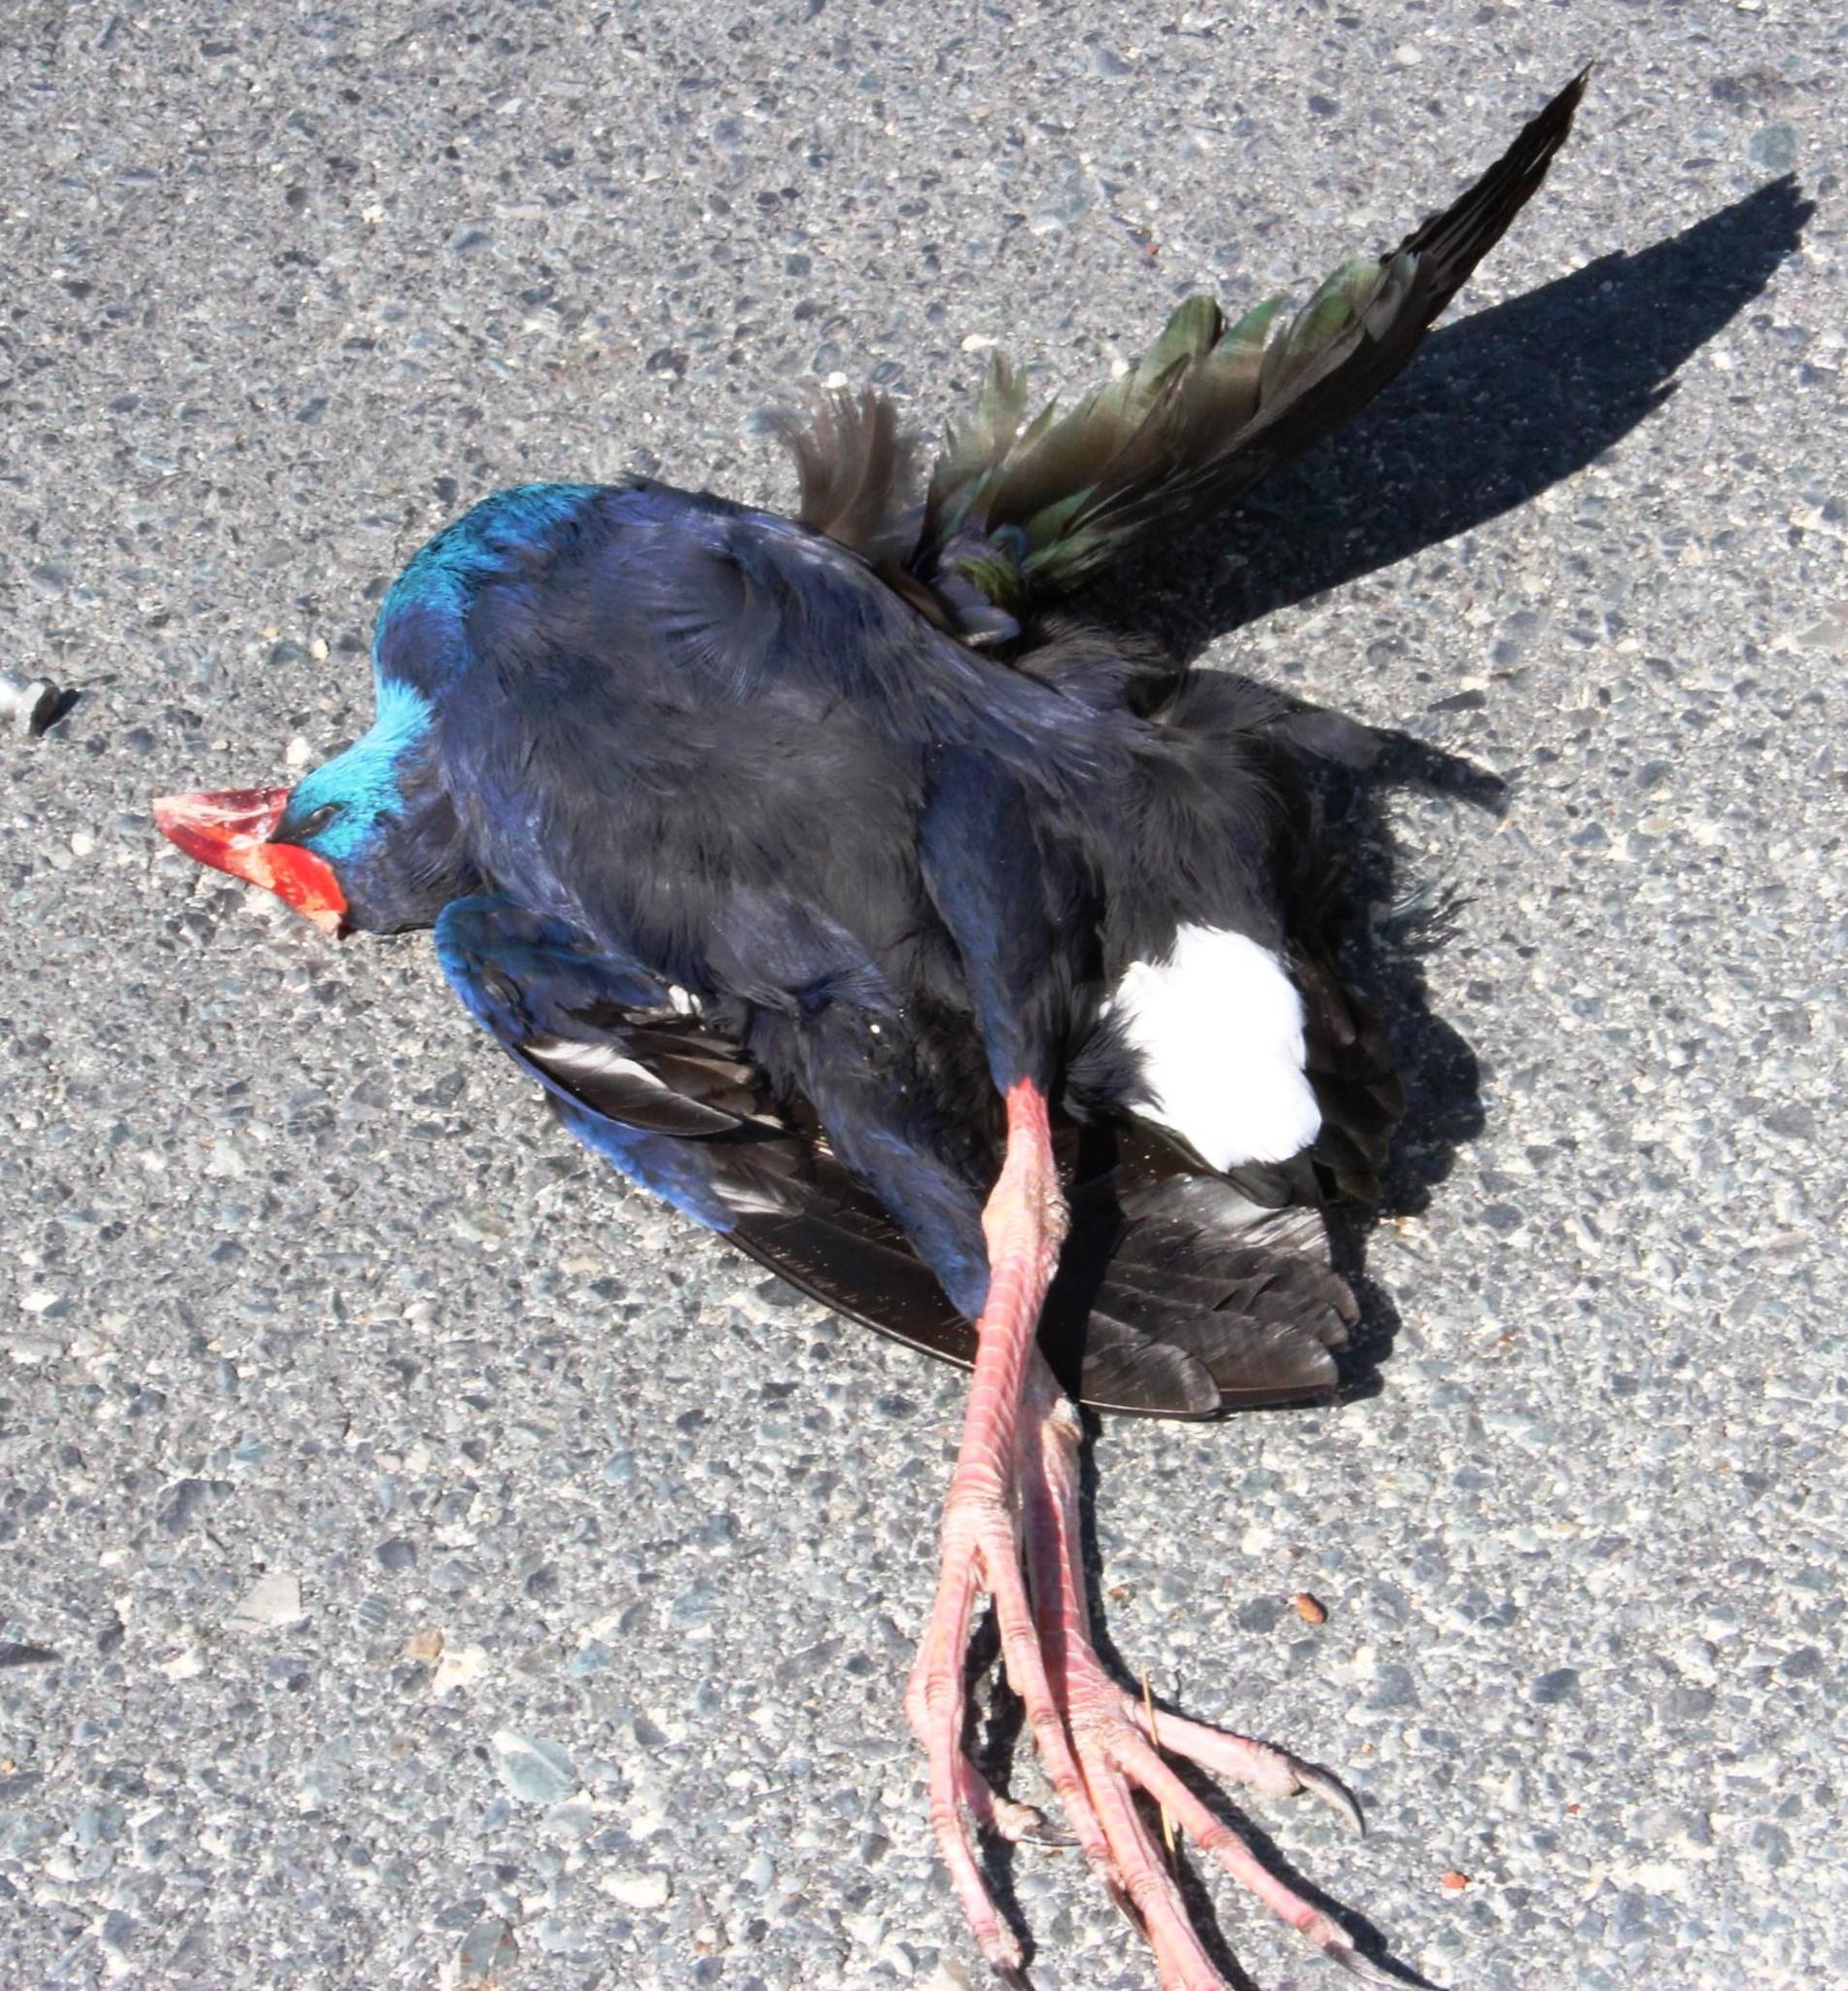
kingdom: Animalia
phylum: Chordata
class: Aves
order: Gruiformes
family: Rallidae
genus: Porphyrio
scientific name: Porphyrio porphyrio
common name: Purple swamphen
